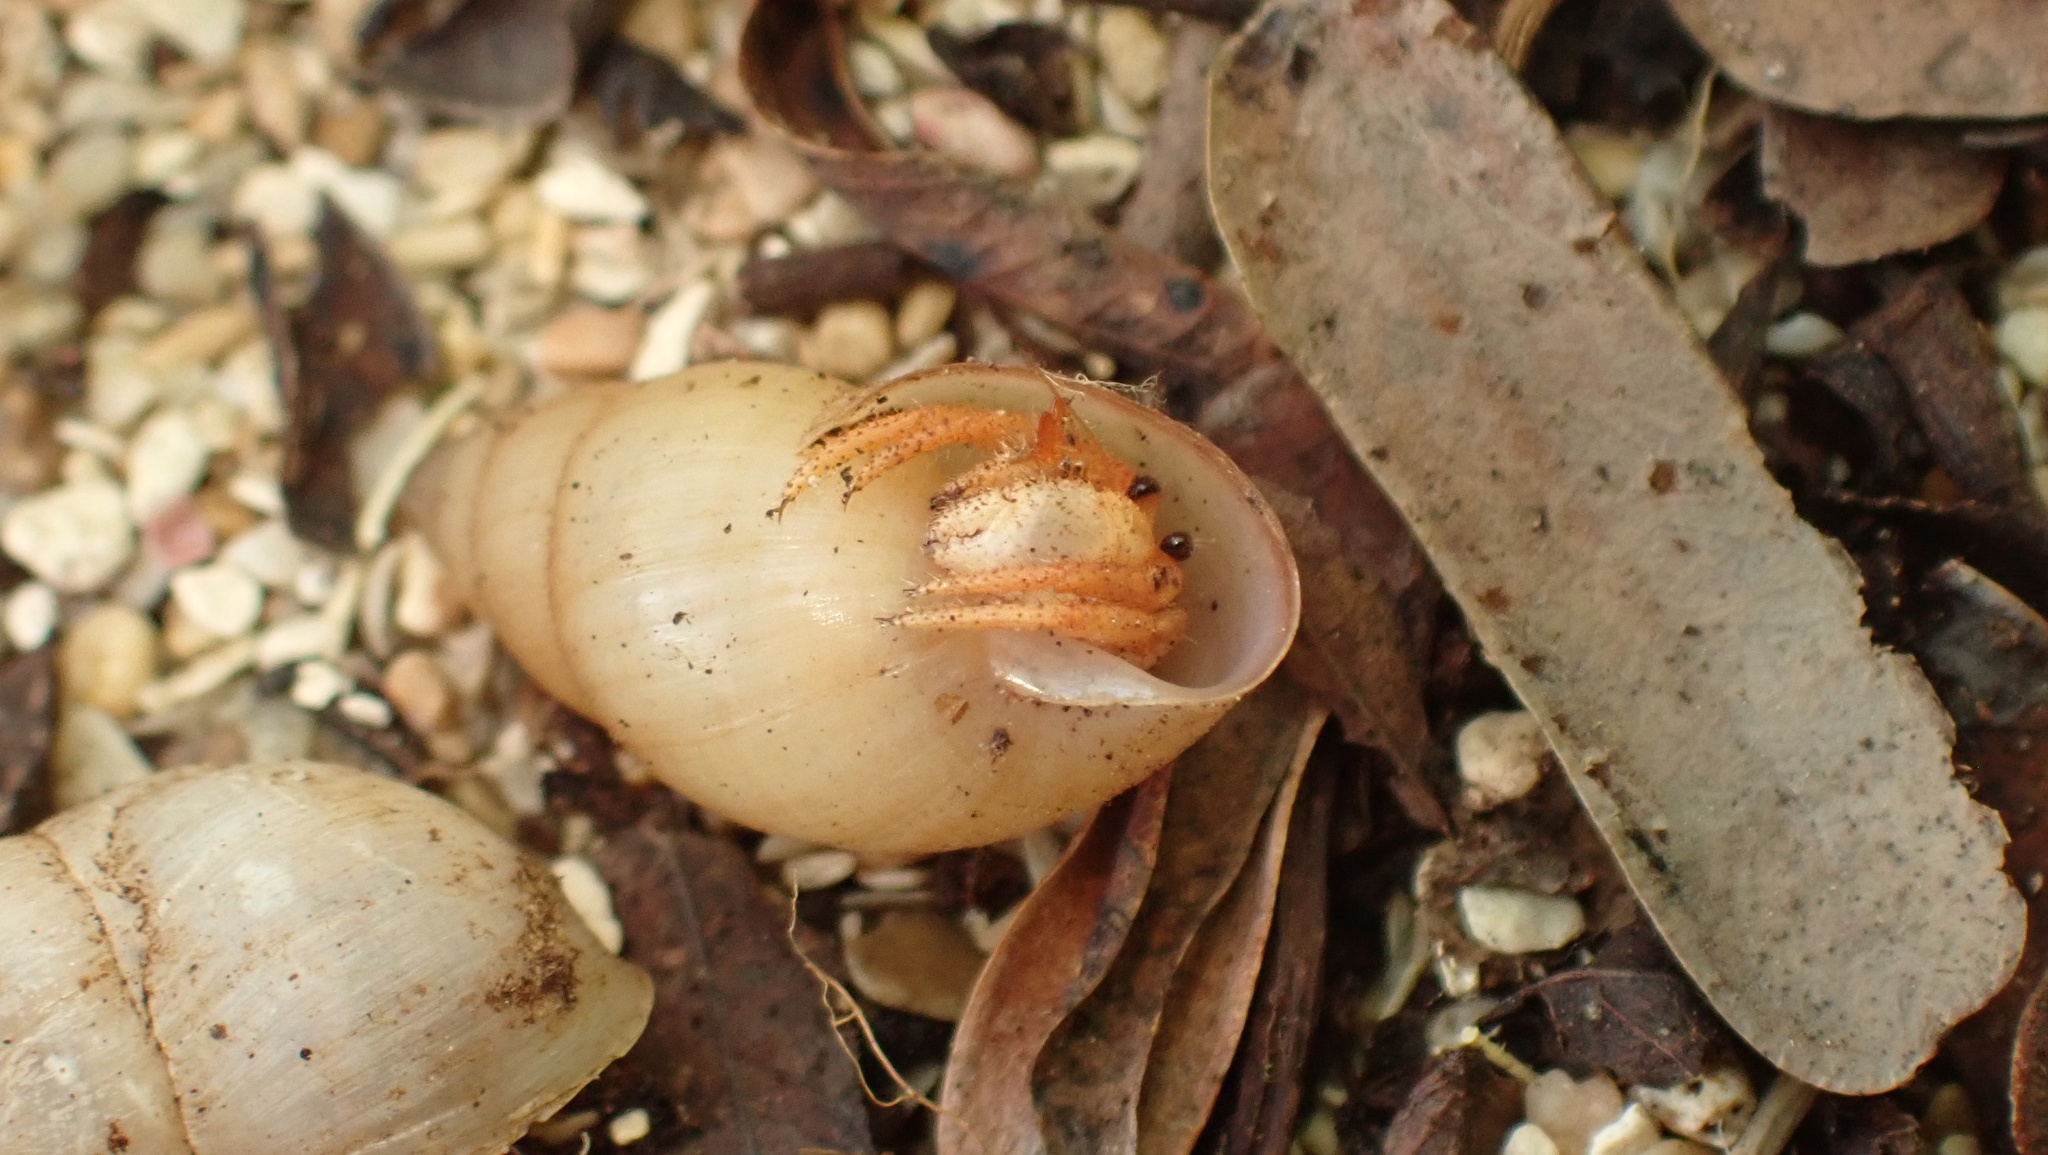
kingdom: Animalia
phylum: Arthropoda
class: Malacostraca
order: Decapoda
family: Coenobitidae
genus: Coenobita
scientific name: Coenobita clypeatus
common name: Caribbean hermit crab
